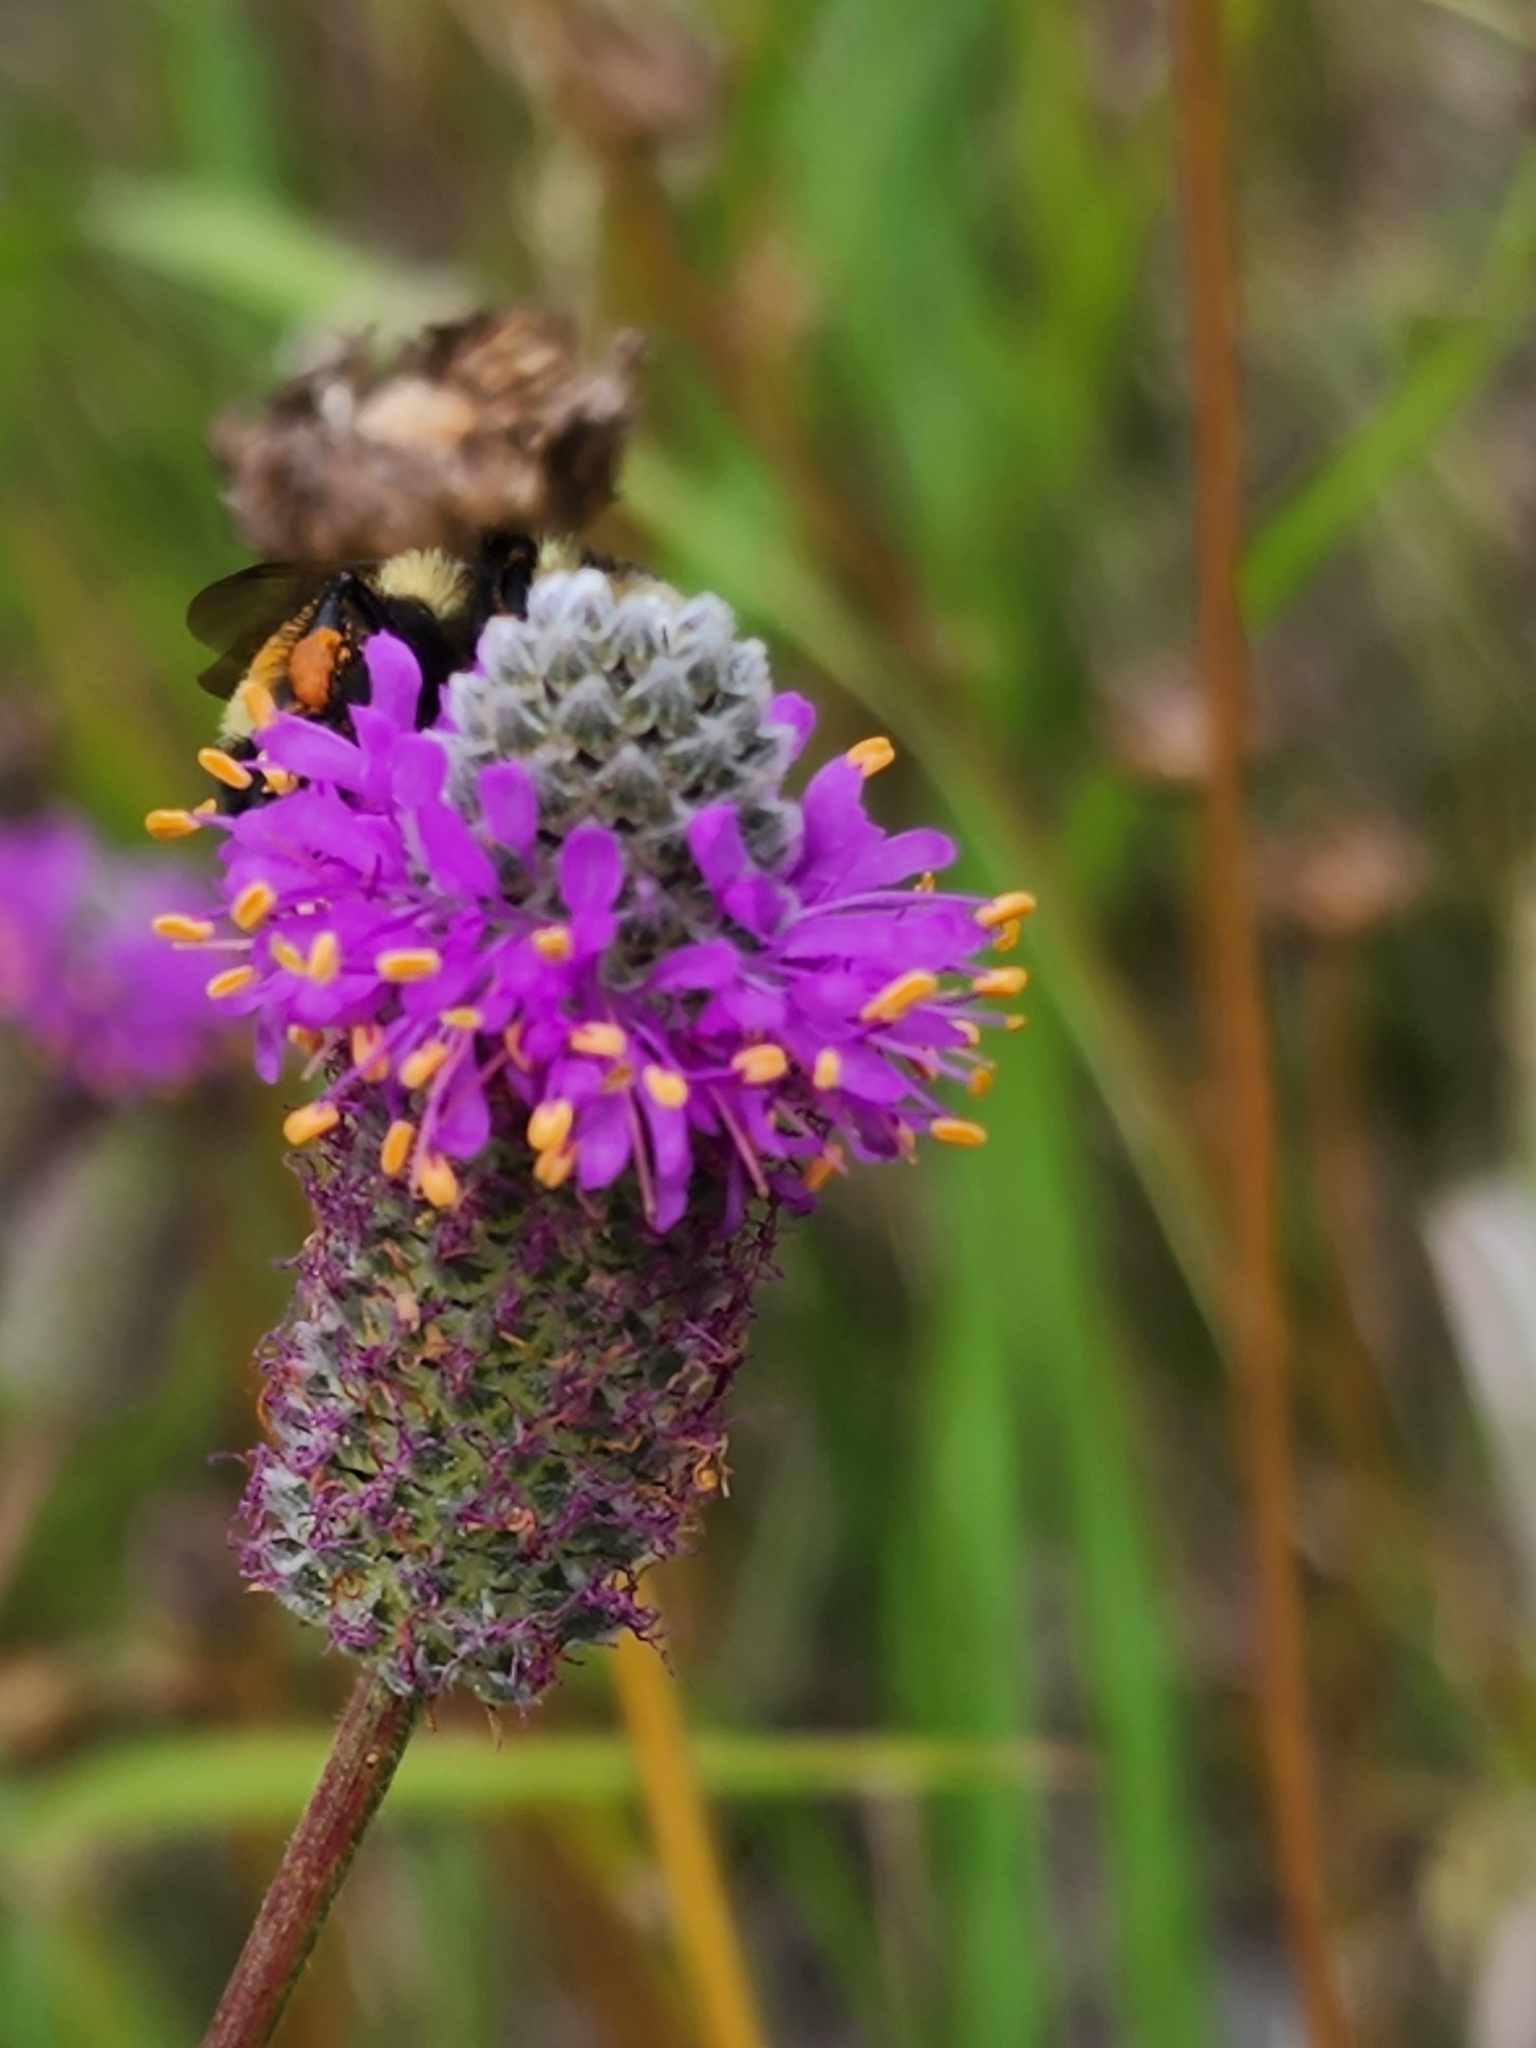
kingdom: Plantae
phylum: Tracheophyta
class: Magnoliopsida
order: Fabales
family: Fabaceae
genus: Dalea
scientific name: Dalea purpurea
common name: Purple prairie-clover
